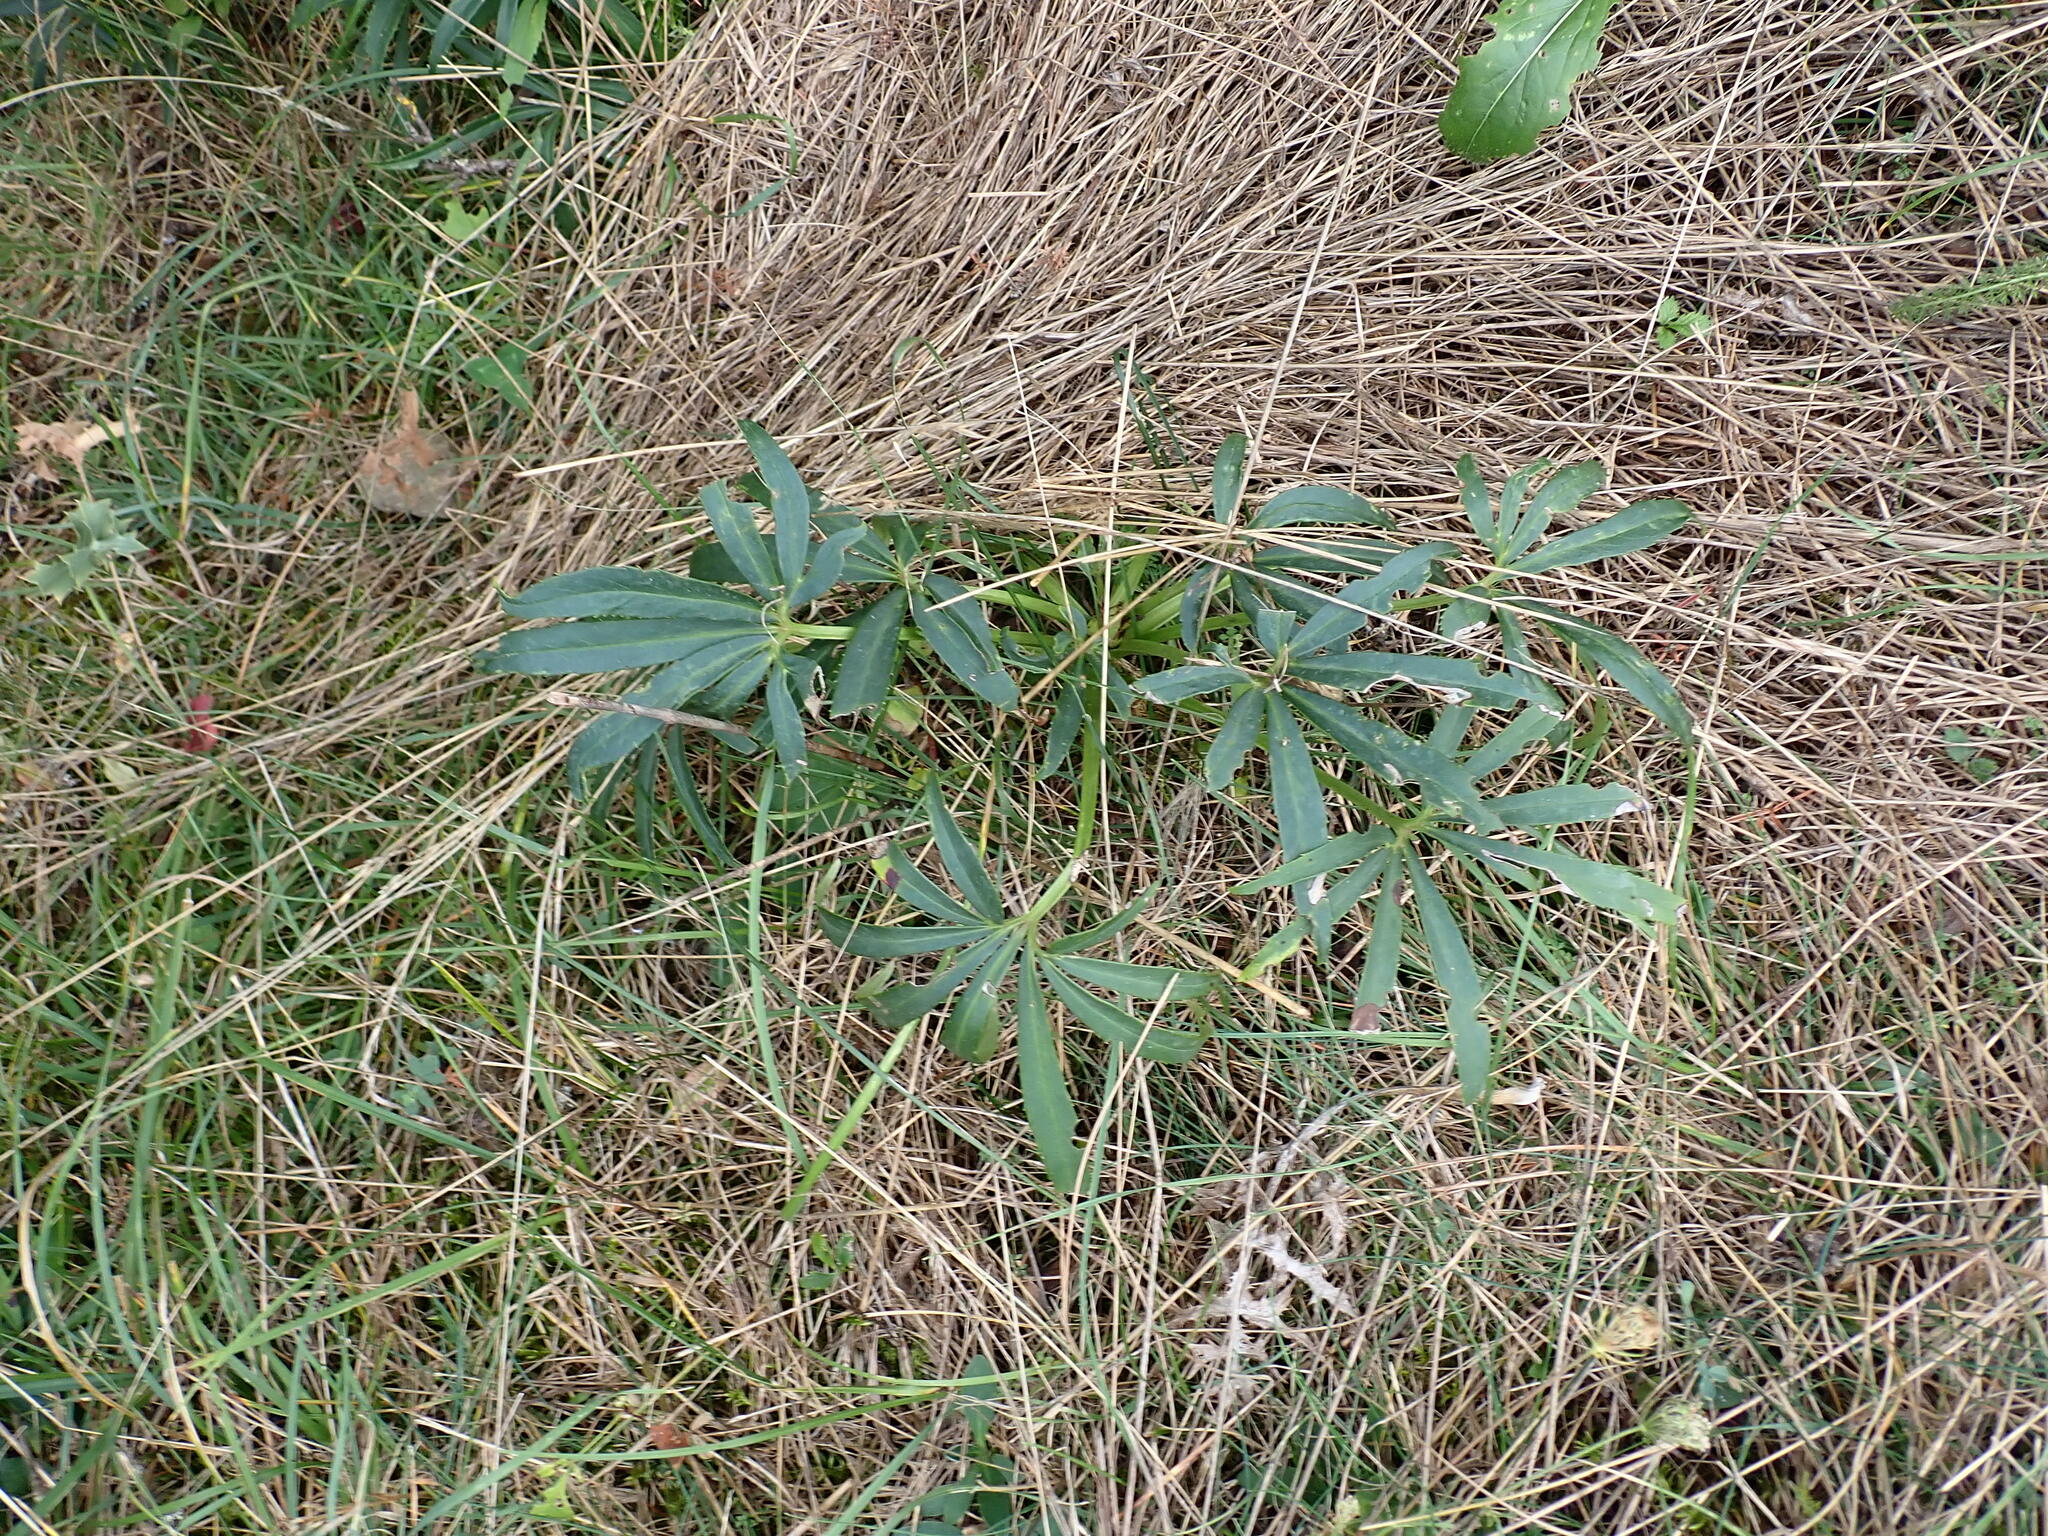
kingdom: Plantae
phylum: Tracheophyta
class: Magnoliopsida
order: Ranunculales
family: Ranunculaceae
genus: Helleborus
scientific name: Helleborus foetidus
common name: Stinking hellebore
